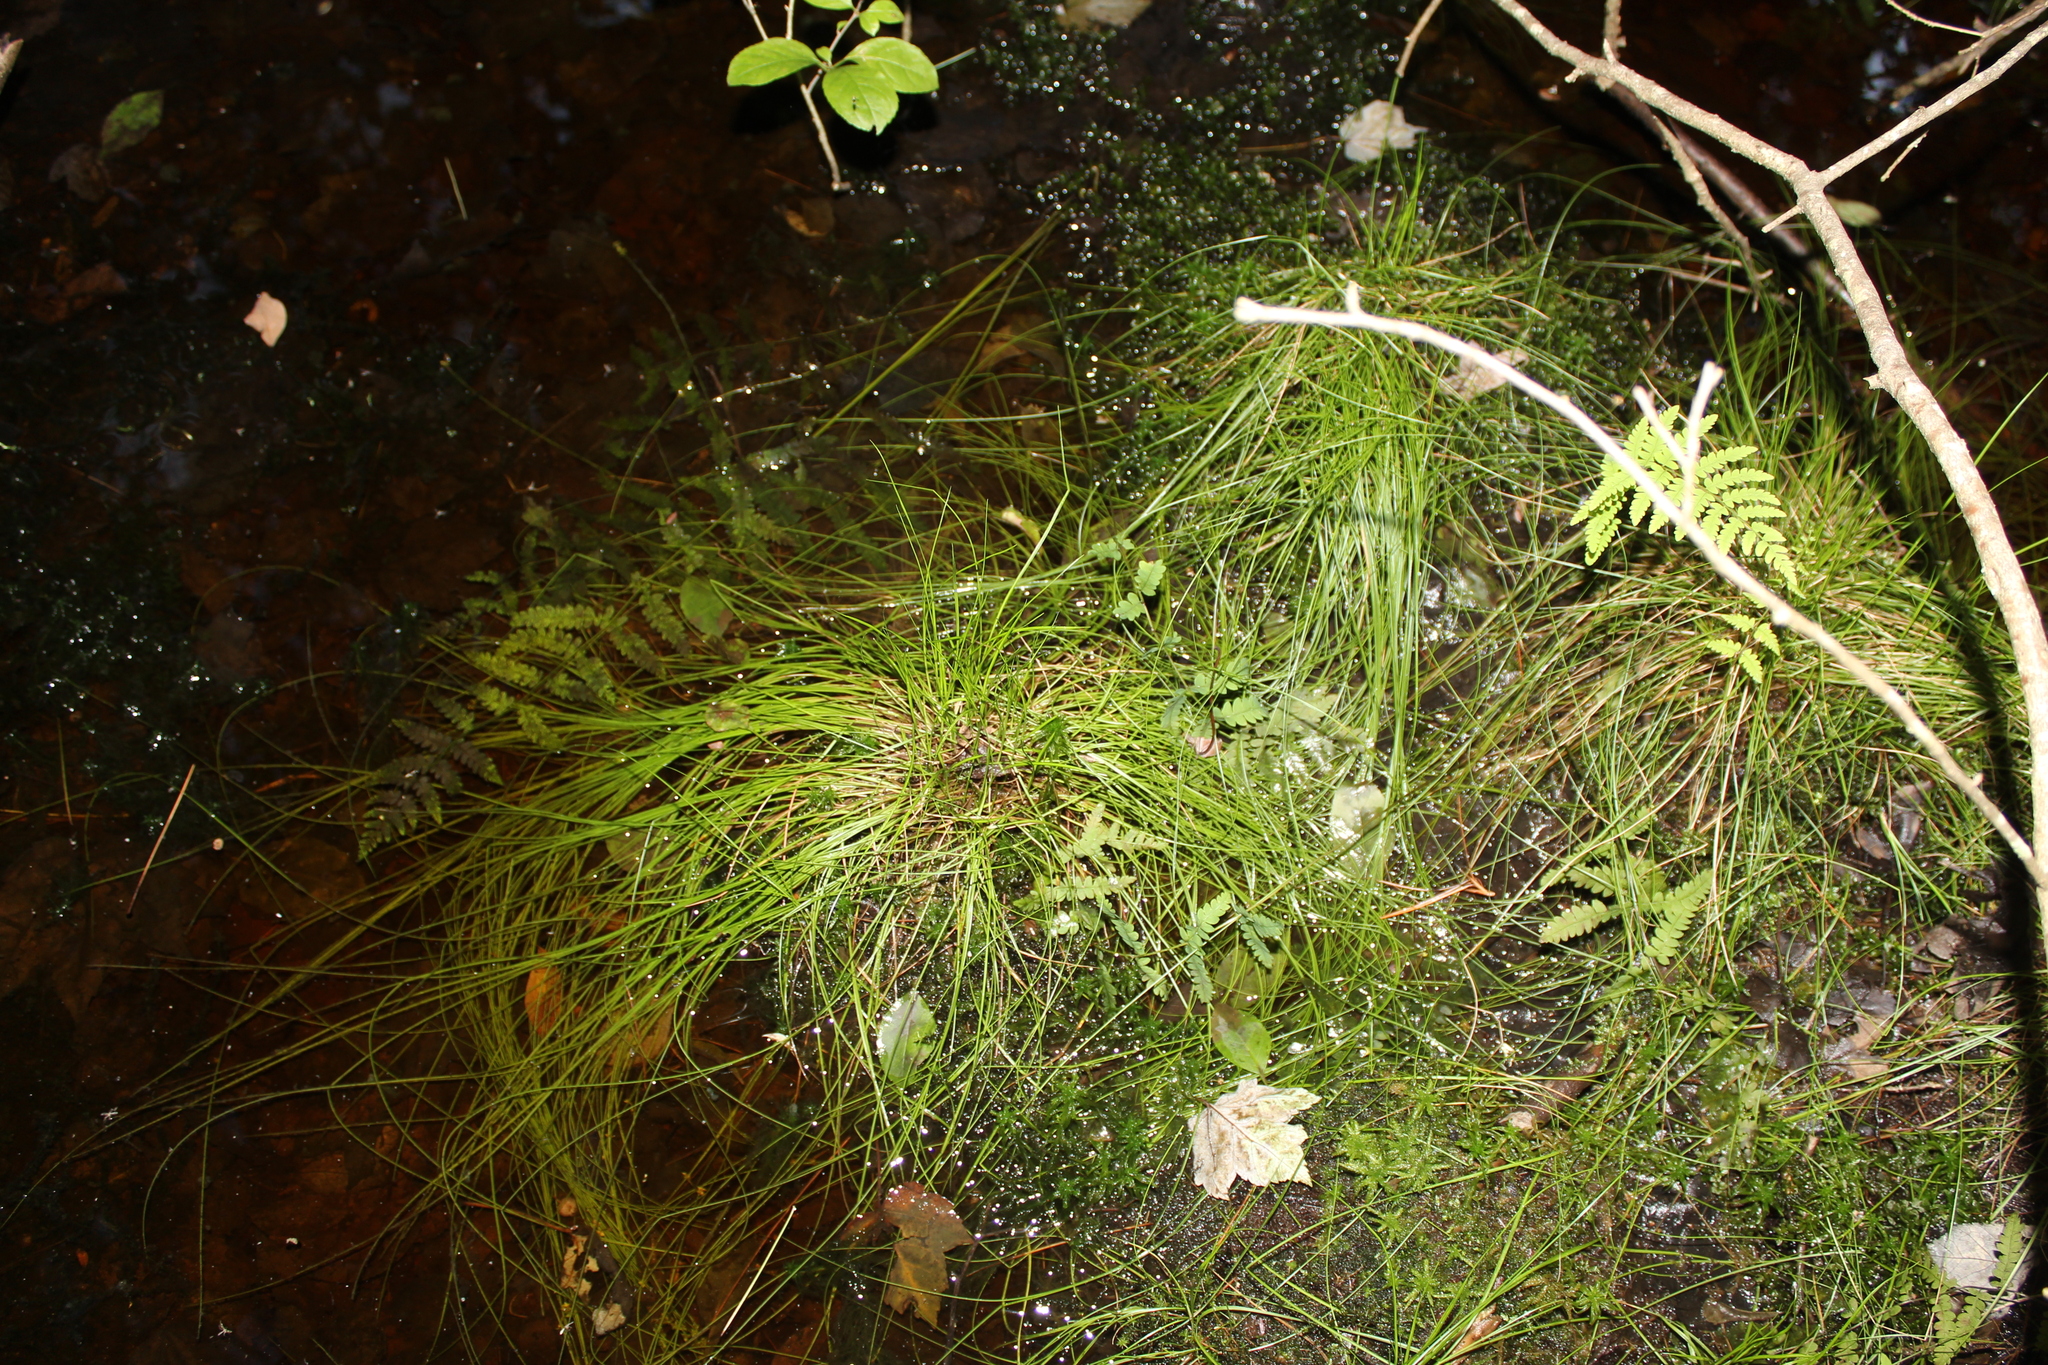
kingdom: Plantae
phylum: Tracheophyta
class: Liliopsida
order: Poales
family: Cyperaceae
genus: Carex
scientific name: Carex atlantica
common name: Atlantic sedge
